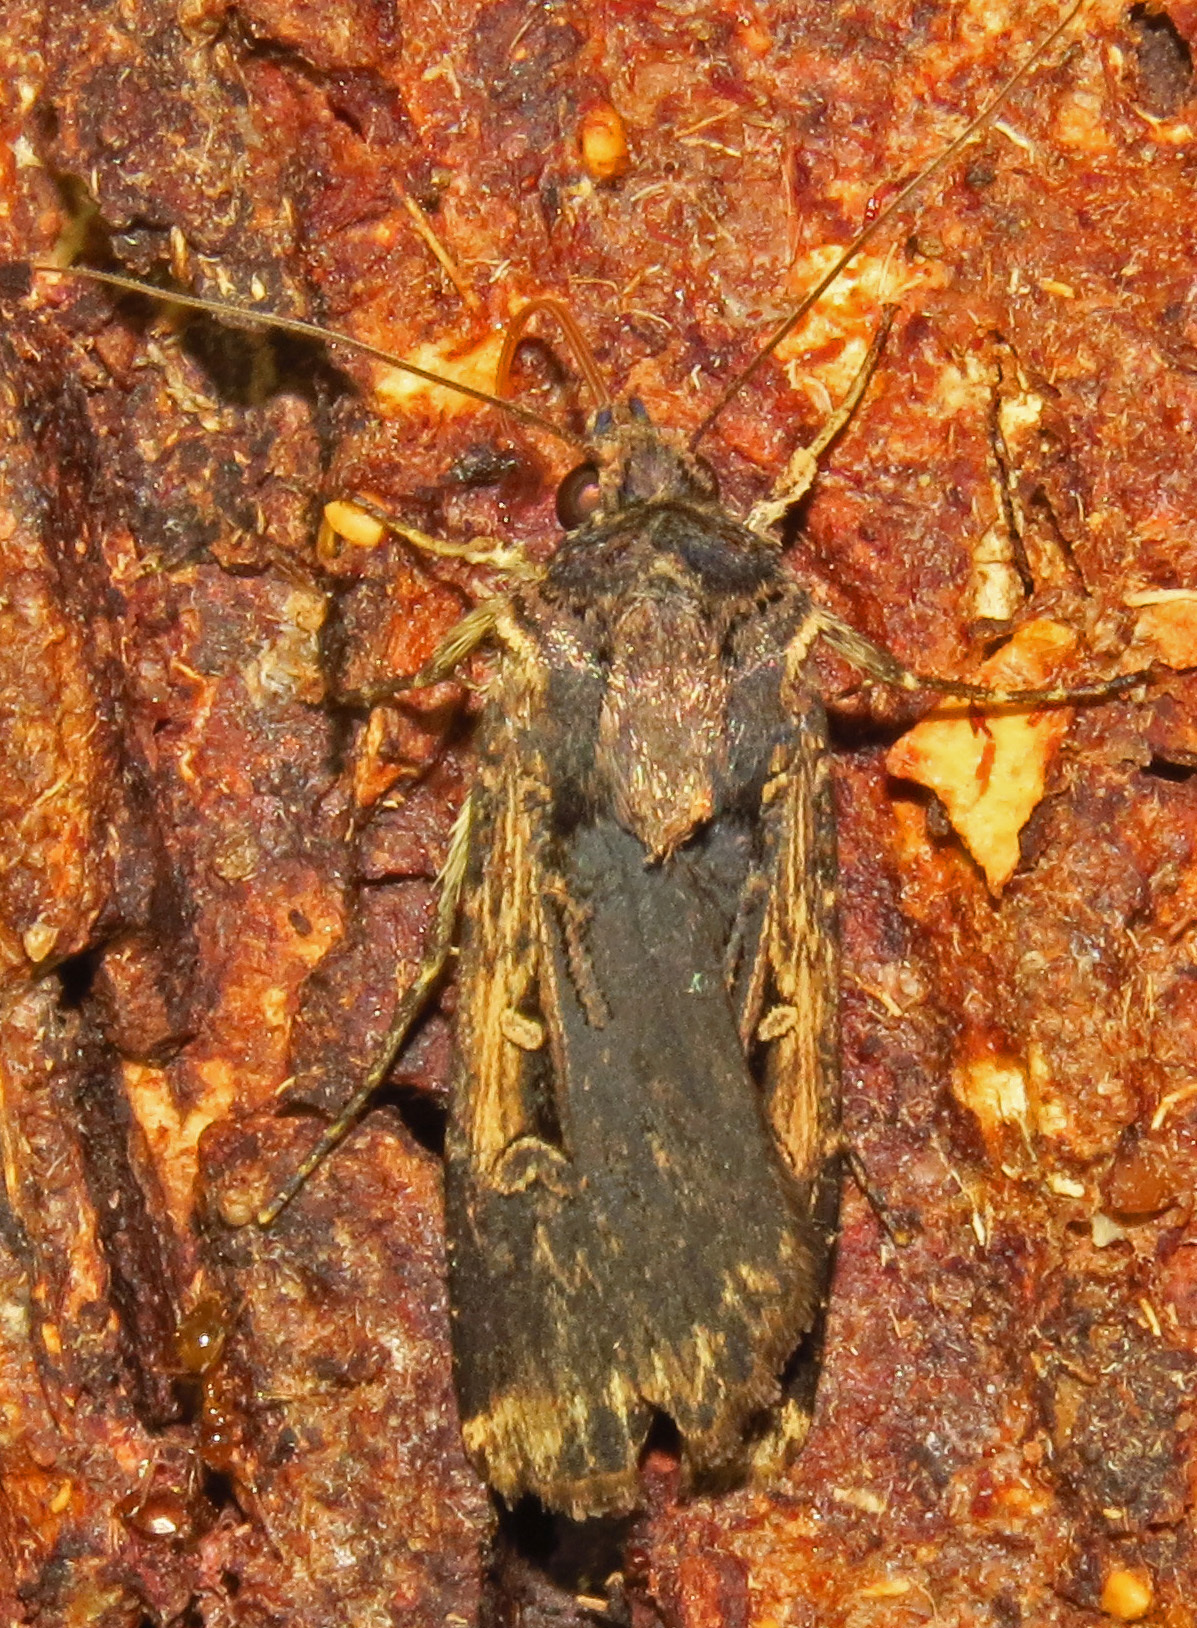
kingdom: Animalia
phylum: Arthropoda
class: Insecta
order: Lepidoptera
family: Noctuidae
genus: Feltia
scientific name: Feltia subterranea
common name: Granulate cutworm
